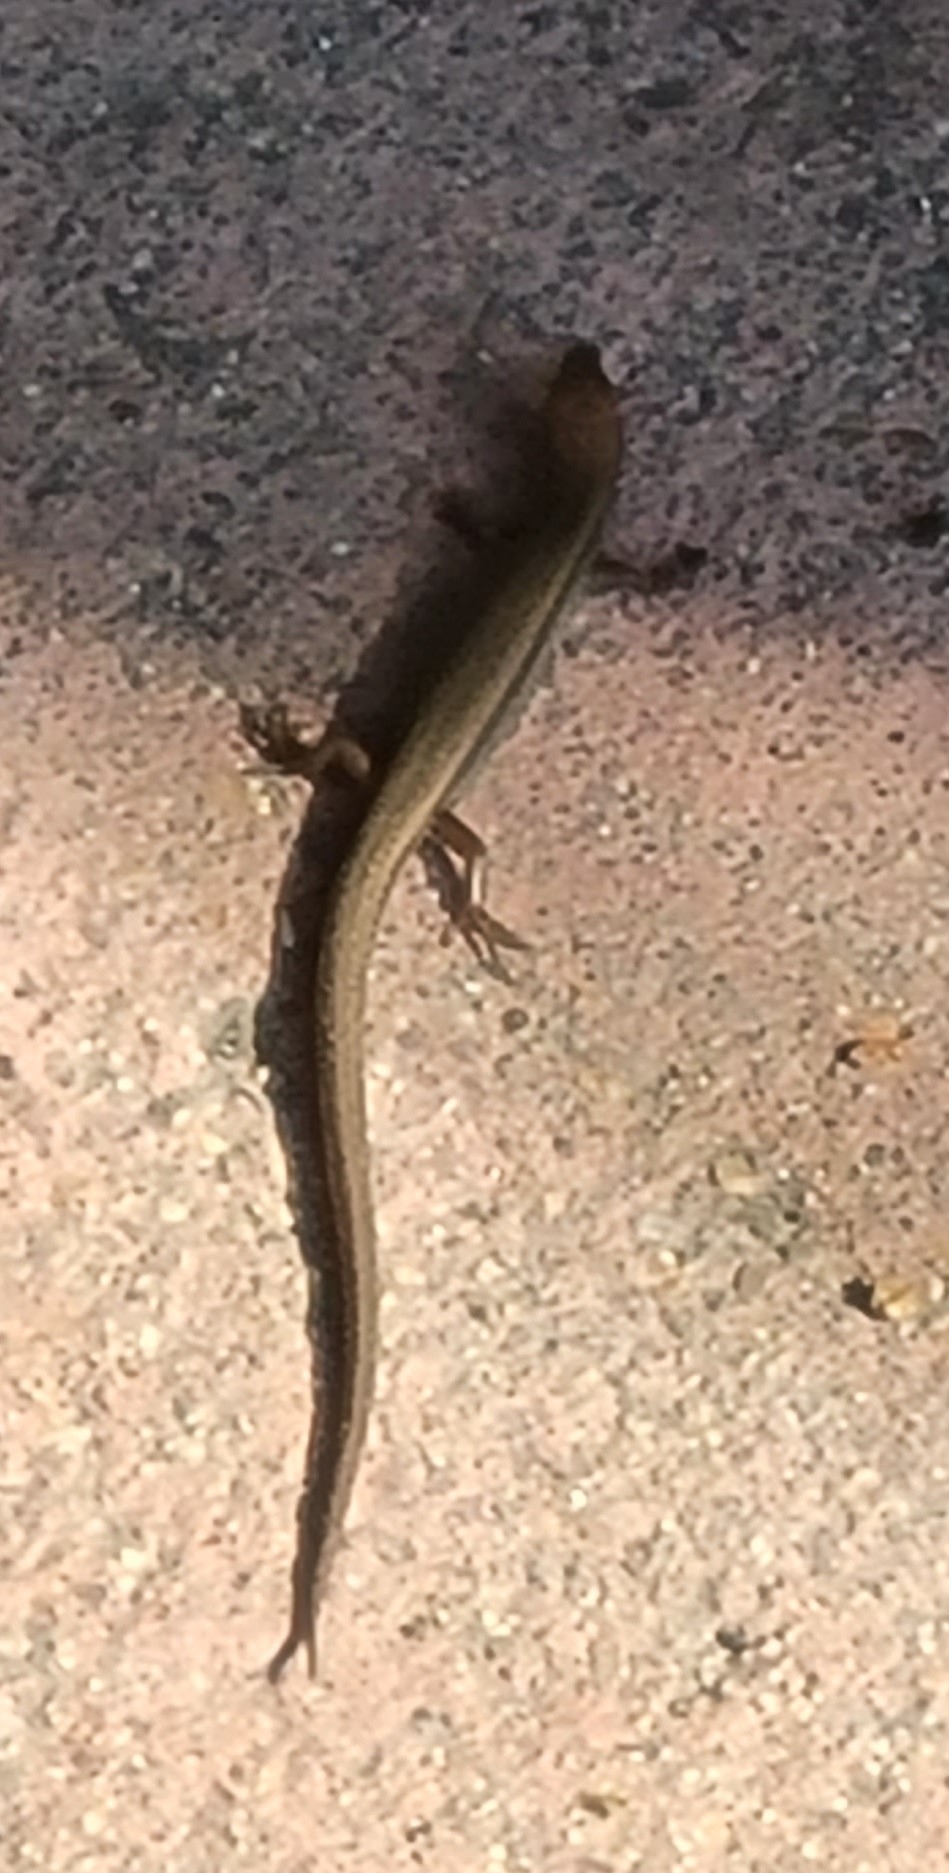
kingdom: Animalia
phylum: Chordata
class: Squamata
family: Scincidae
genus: Scincella
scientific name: Scincella lateralis
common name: Ground skink
